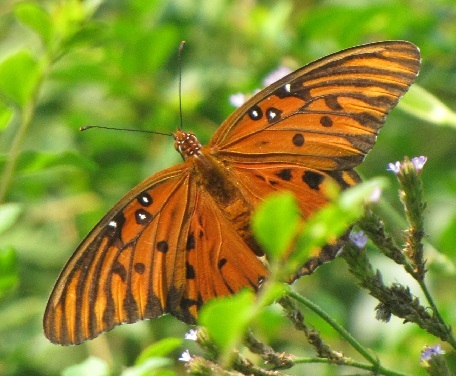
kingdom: Animalia
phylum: Arthropoda
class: Insecta
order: Lepidoptera
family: Nymphalidae
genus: Dione
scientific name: Dione vanillae
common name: Gulf fritillary
